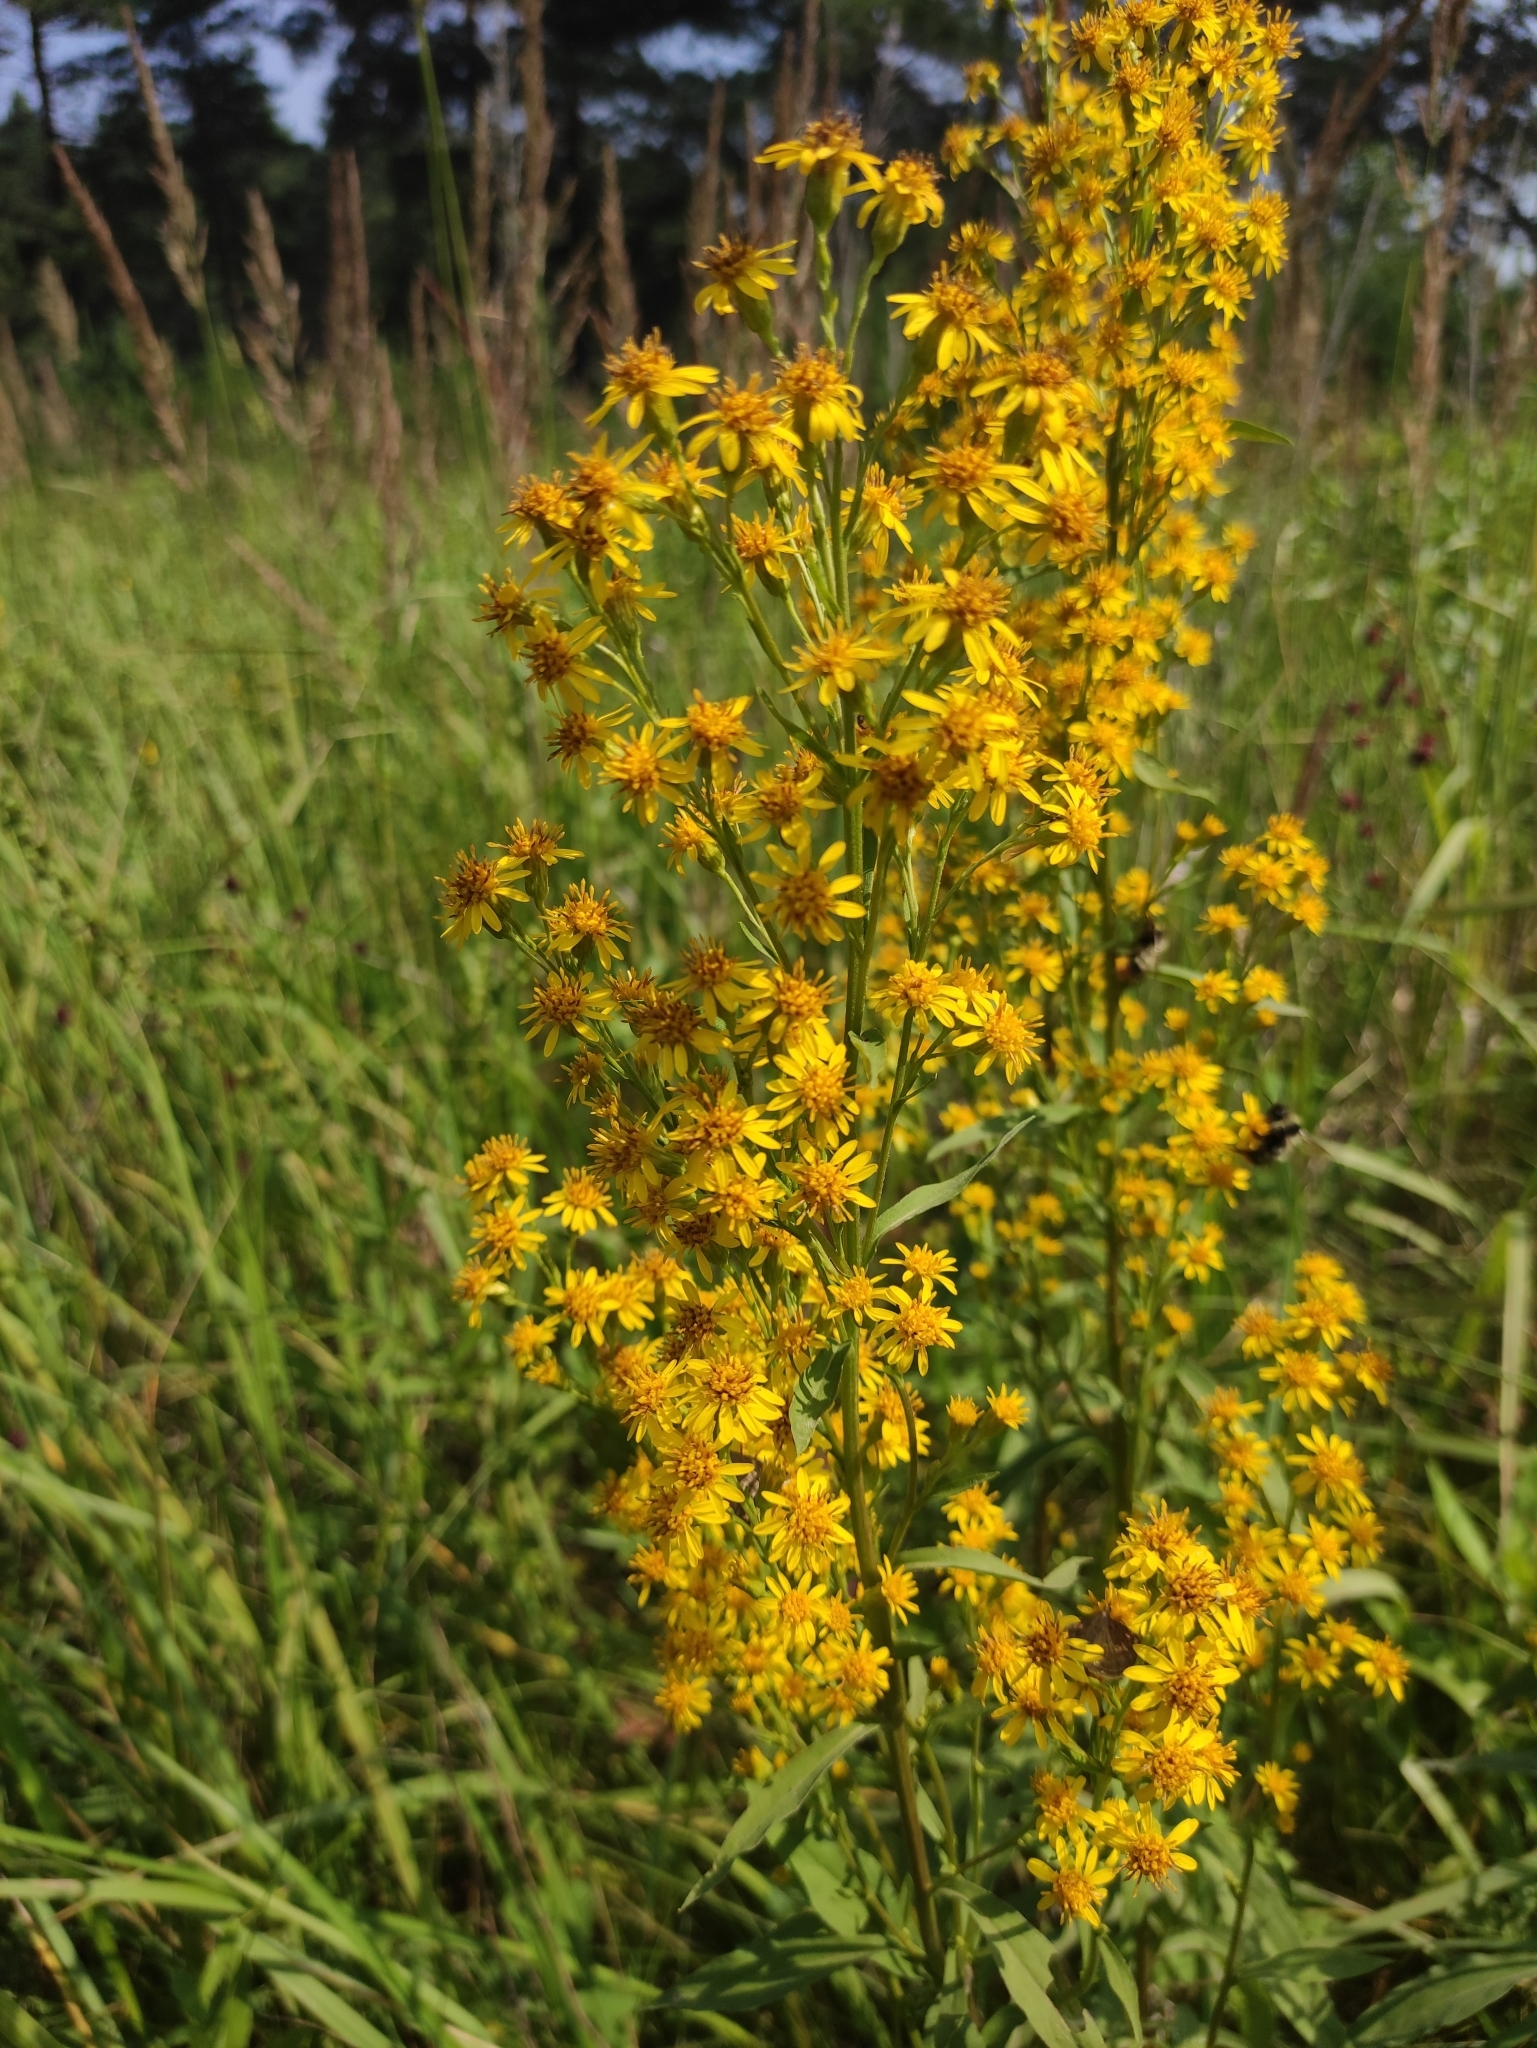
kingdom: Plantae
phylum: Tracheophyta
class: Magnoliopsida
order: Asterales
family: Asteraceae
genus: Solidago
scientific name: Solidago dahurica
